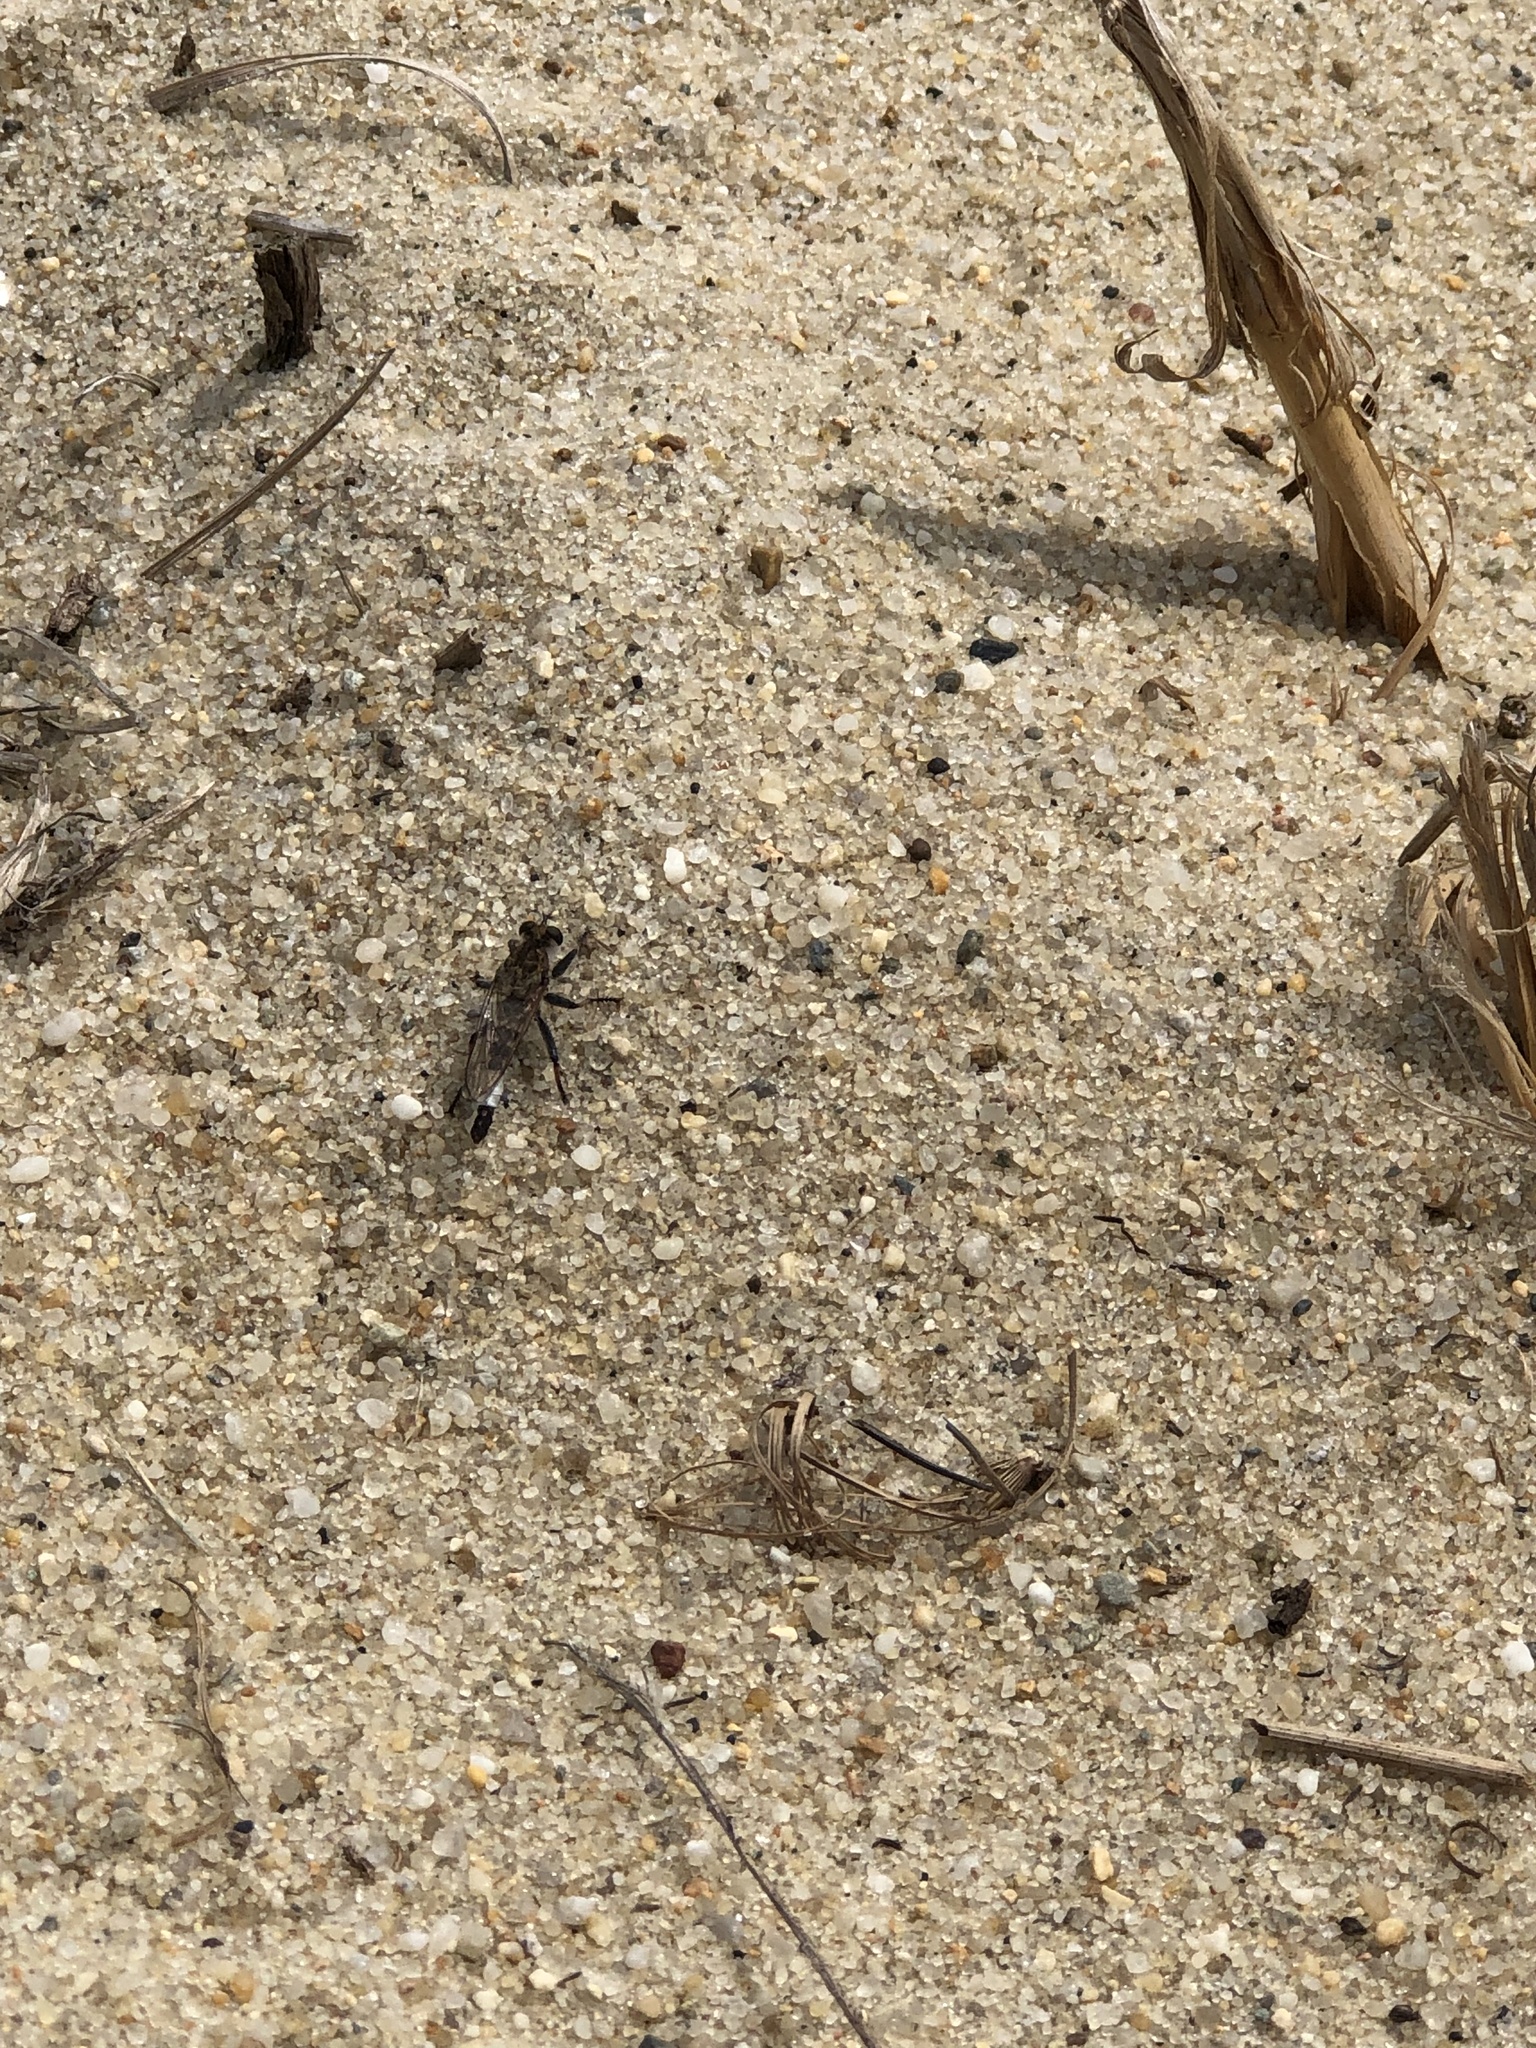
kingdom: Animalia
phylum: Arthropoda
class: Insecta
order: Diptera
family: Asilidae
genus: Efferia
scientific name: Efferia albibarbis
